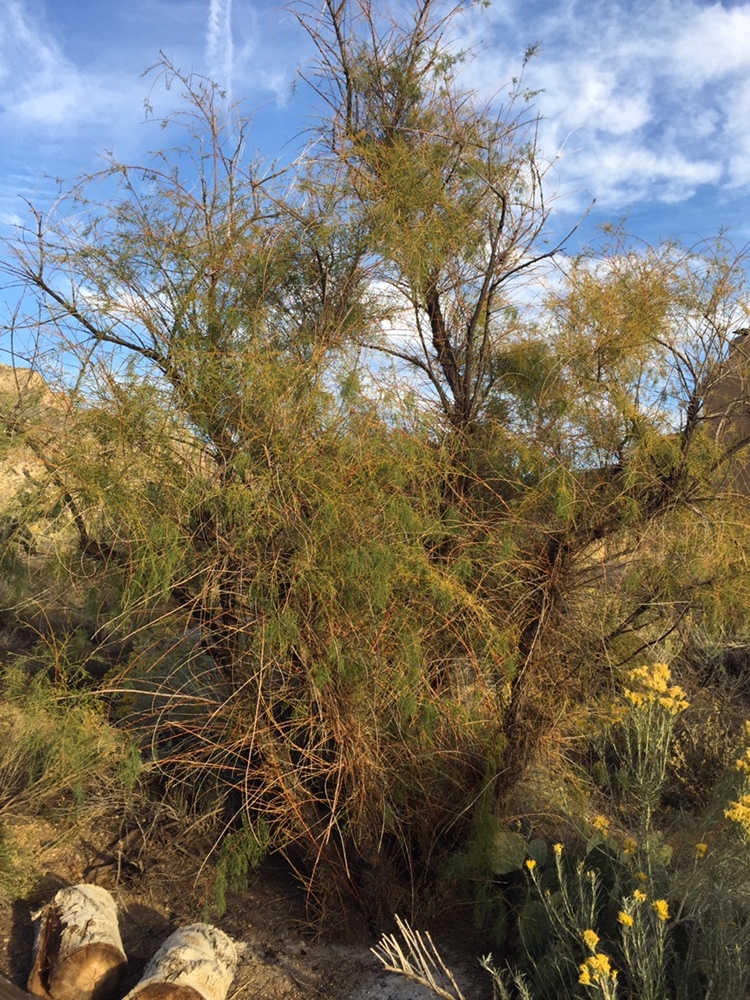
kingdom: Plantae
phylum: Tracheophyta
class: Magnoliopsida
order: Caryophyllales
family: Tamaricaceae
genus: Tamarix
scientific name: Tamarix ramosissima
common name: Pink tamarisk
